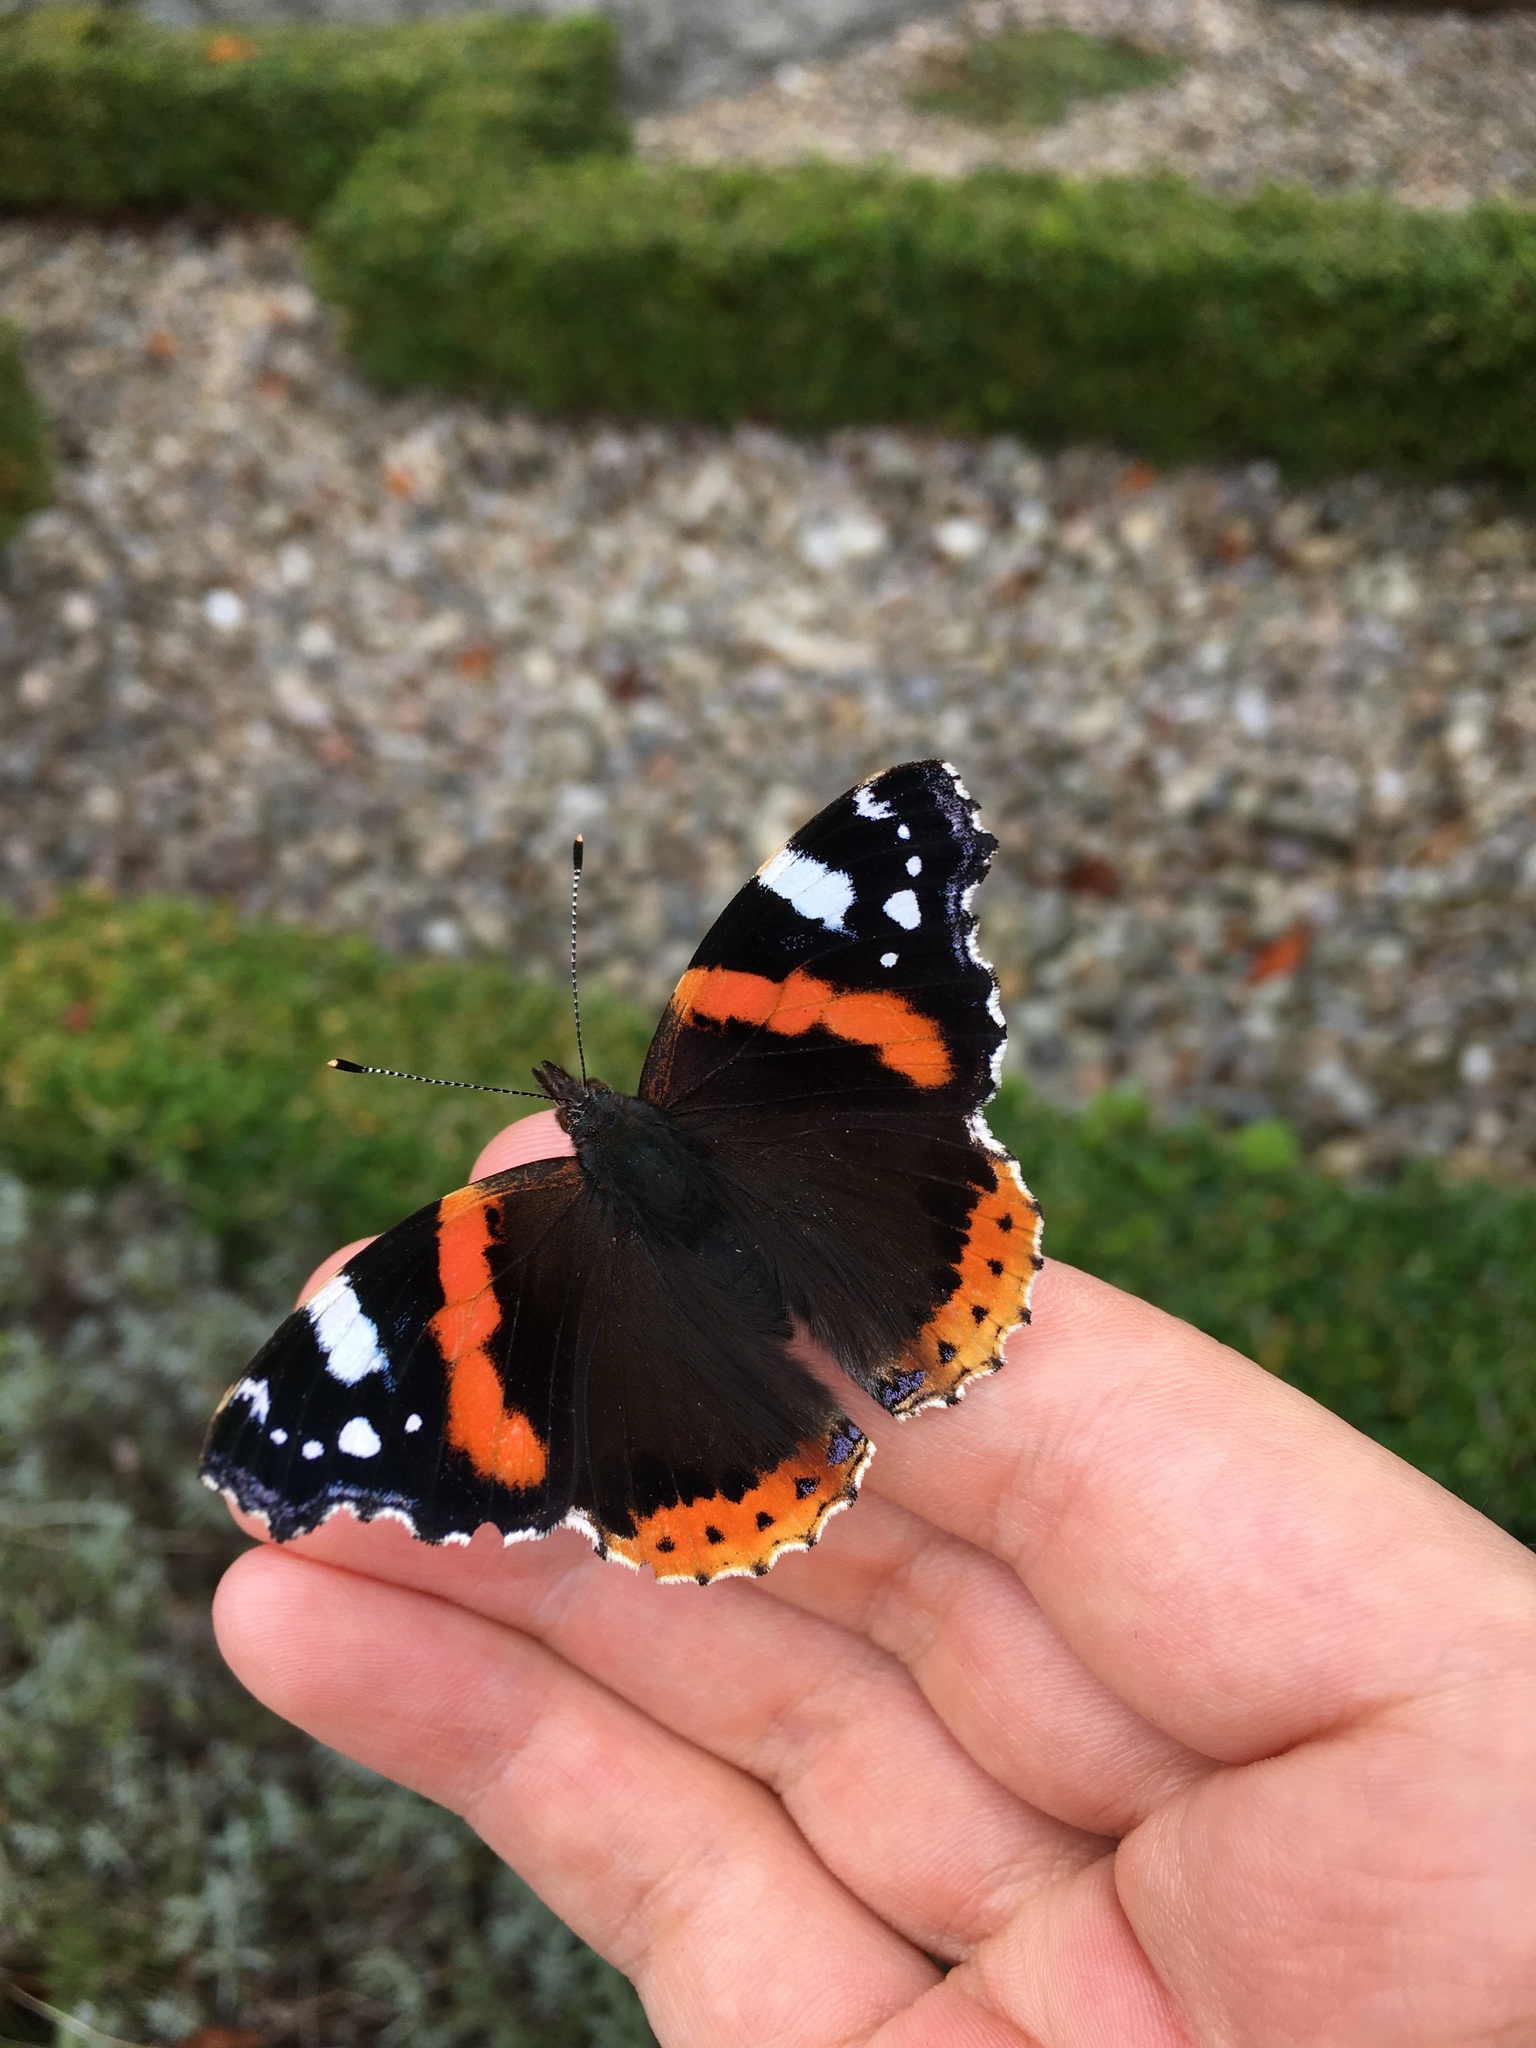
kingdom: Animalia
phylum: Arthropoda
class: Insecta
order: Lepidoptera
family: Nymphalidae
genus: Vanessa
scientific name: Vanessa atalanta
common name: Red admiral
